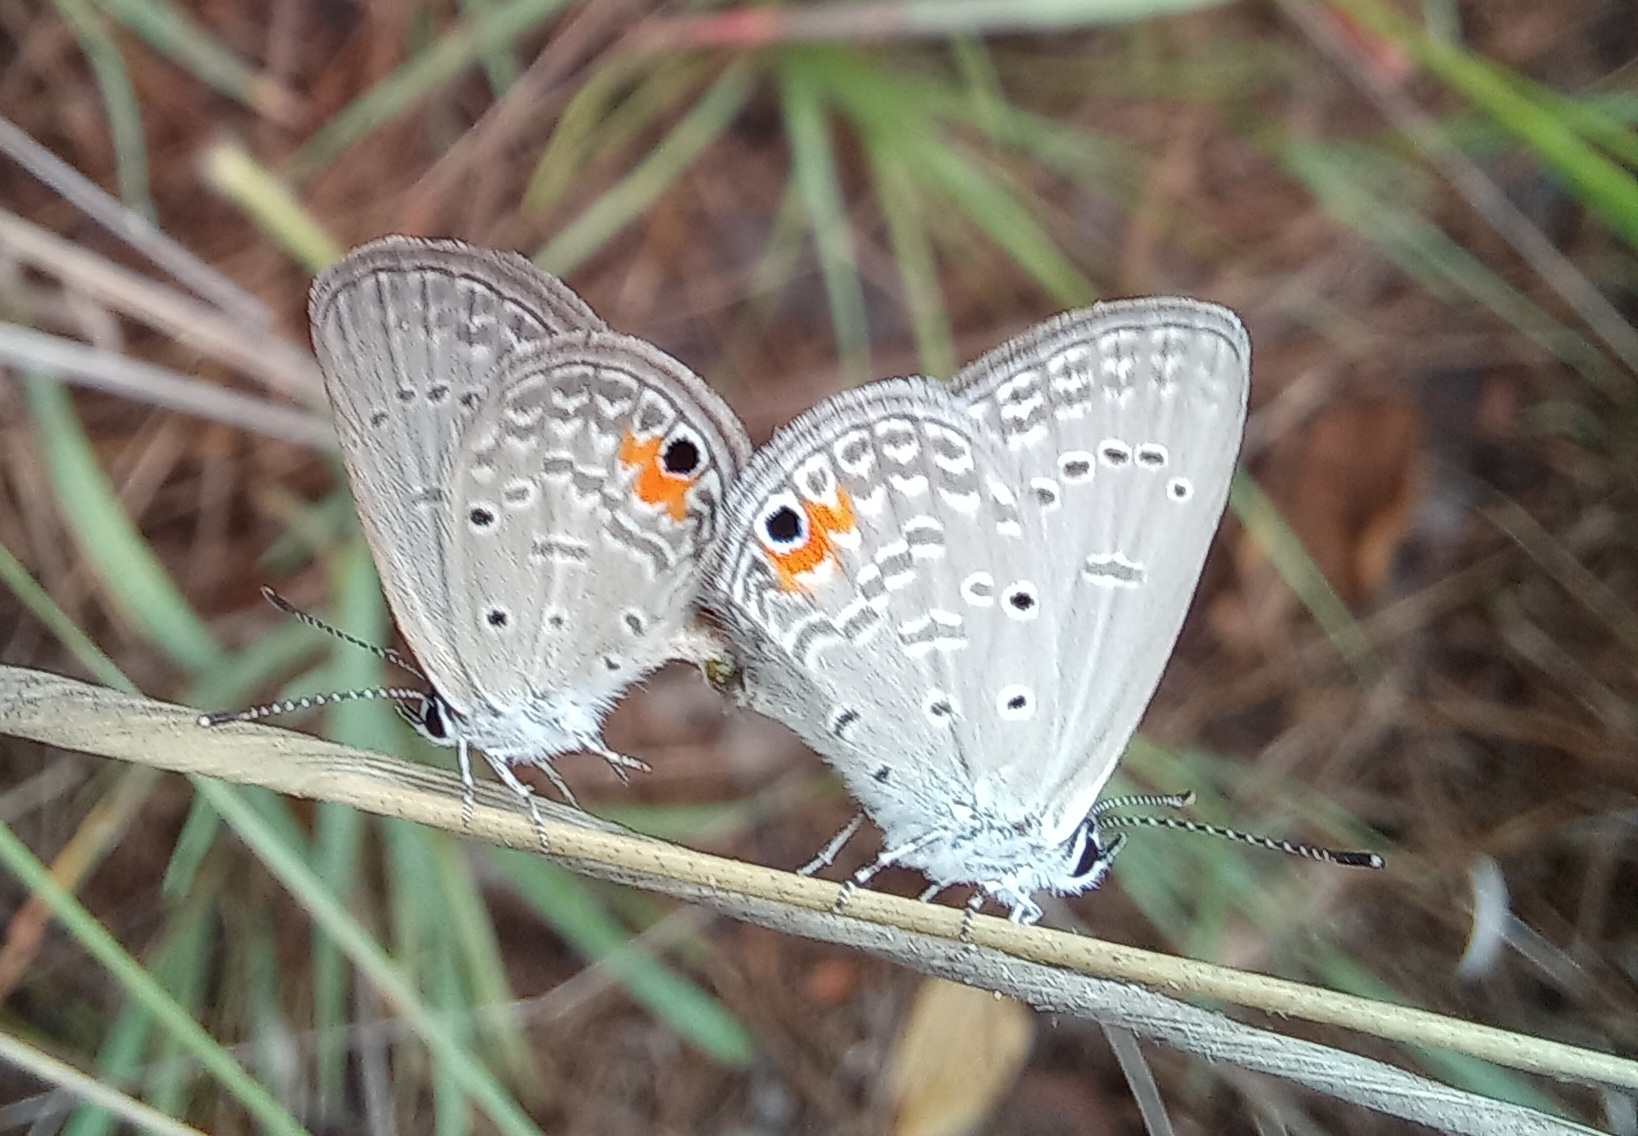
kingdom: Animalia
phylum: Arthropoda
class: Insecta
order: Lepidoptera
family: Lycaenidae
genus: Eicochrysops
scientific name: Eicochrysops messapus
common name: Cupreous blue
